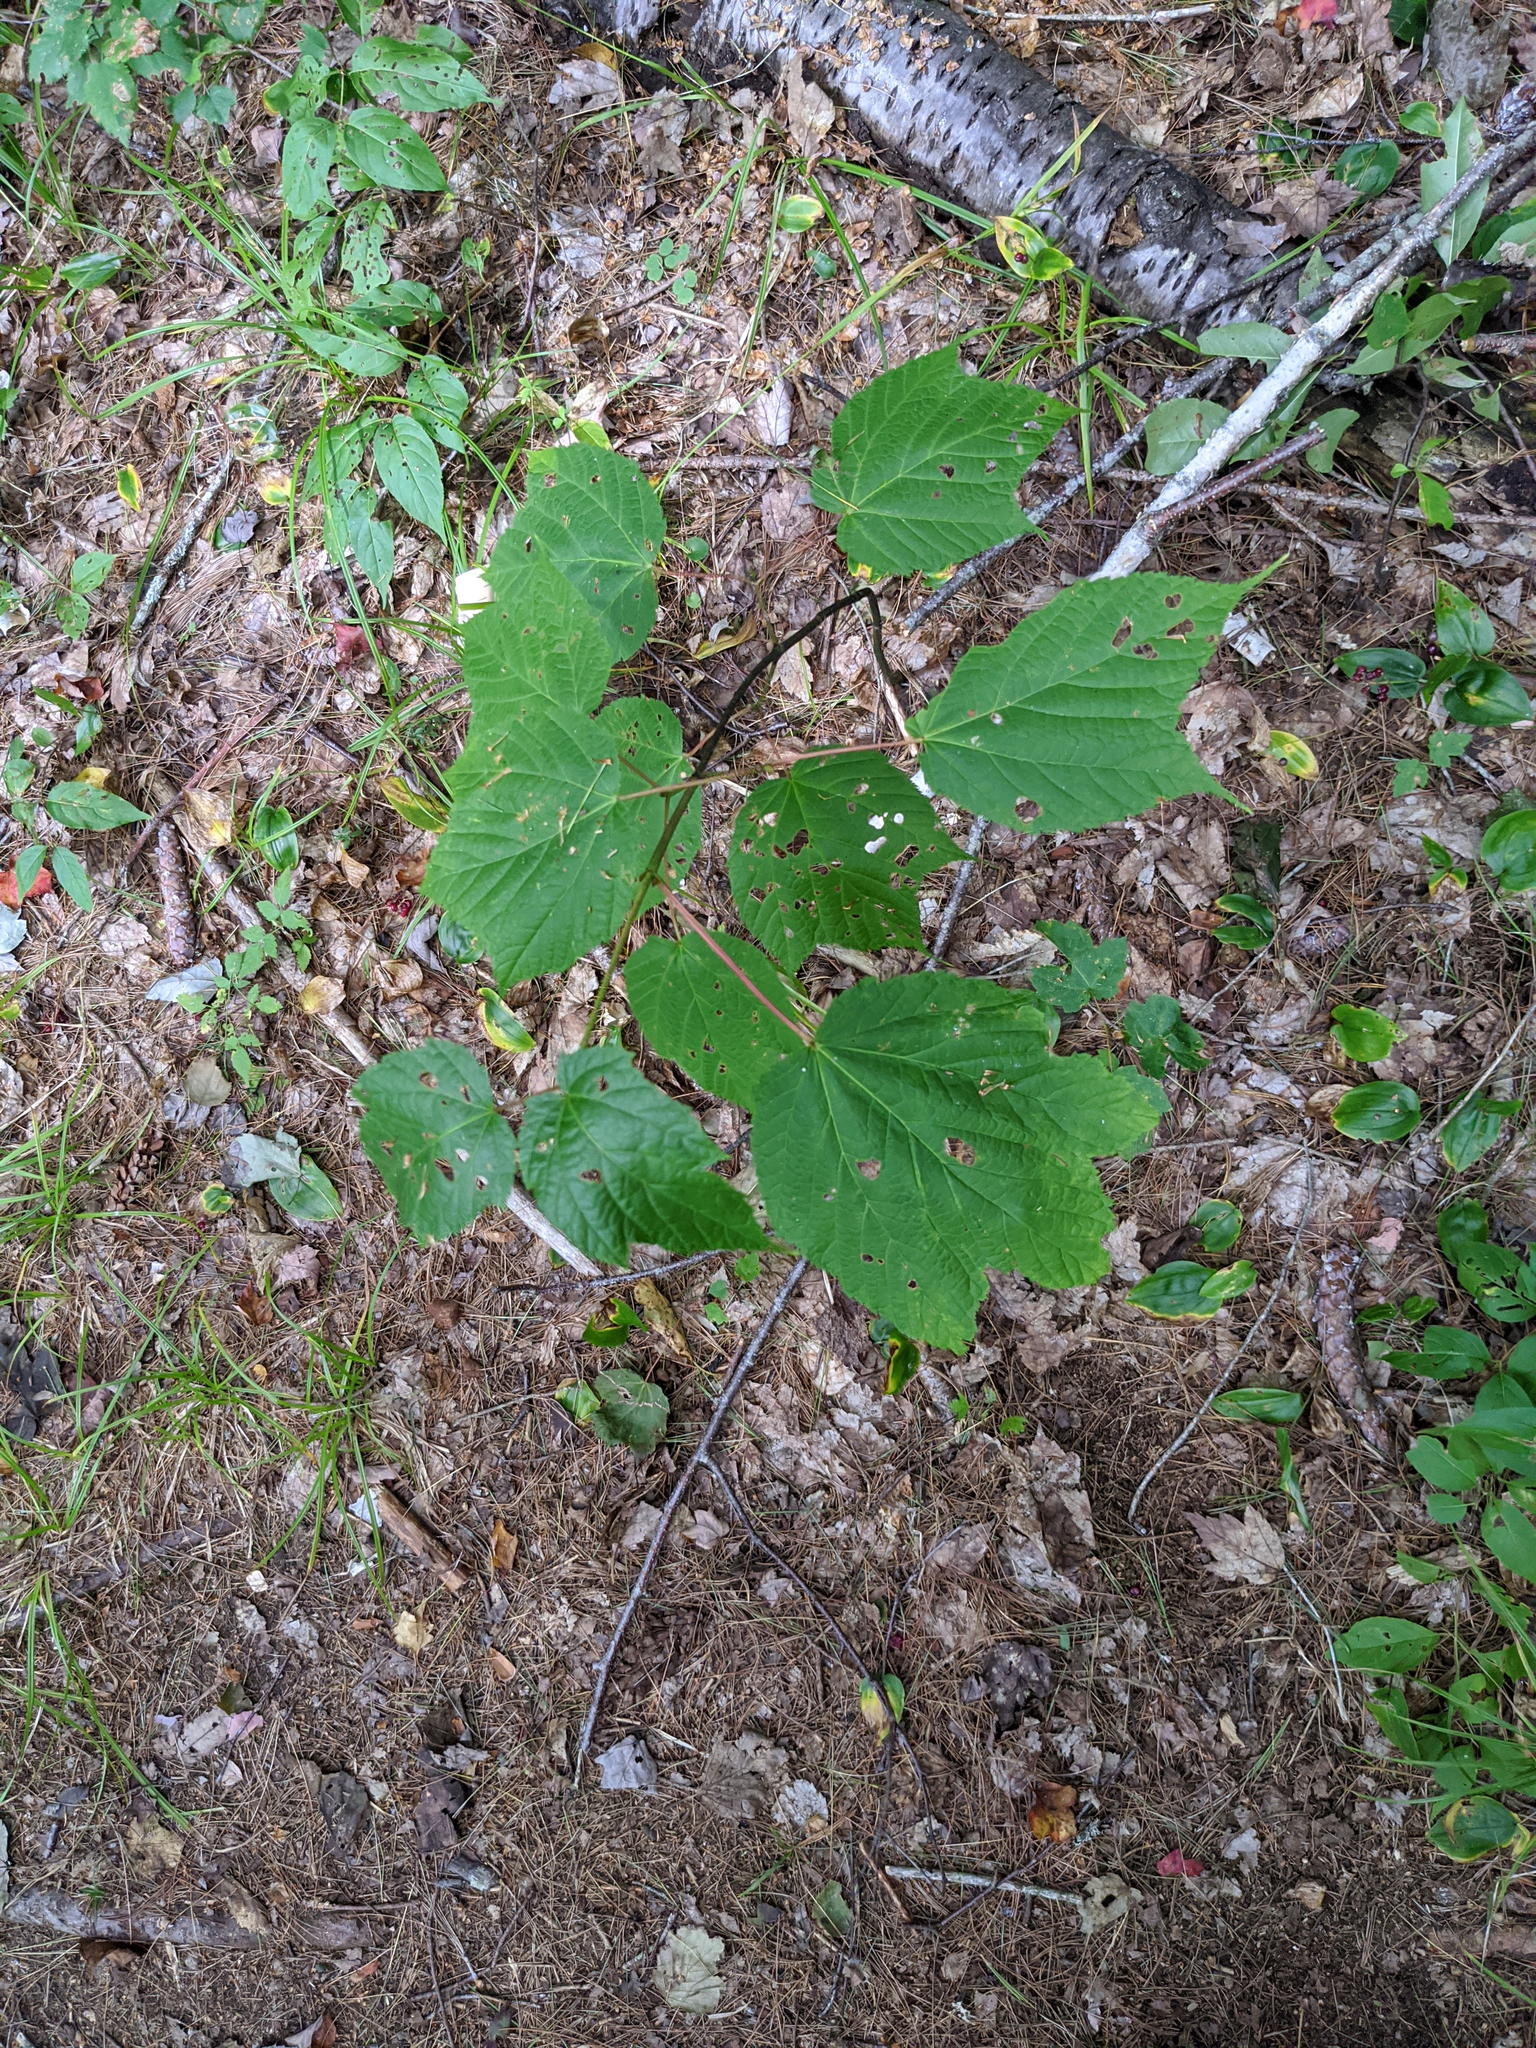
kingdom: Plantae
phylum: Tracheophyta
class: Magnoliopsida
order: Sapindales
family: Sapindaceae
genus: Acer
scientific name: Acer pensylvanicum
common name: Moosewood
